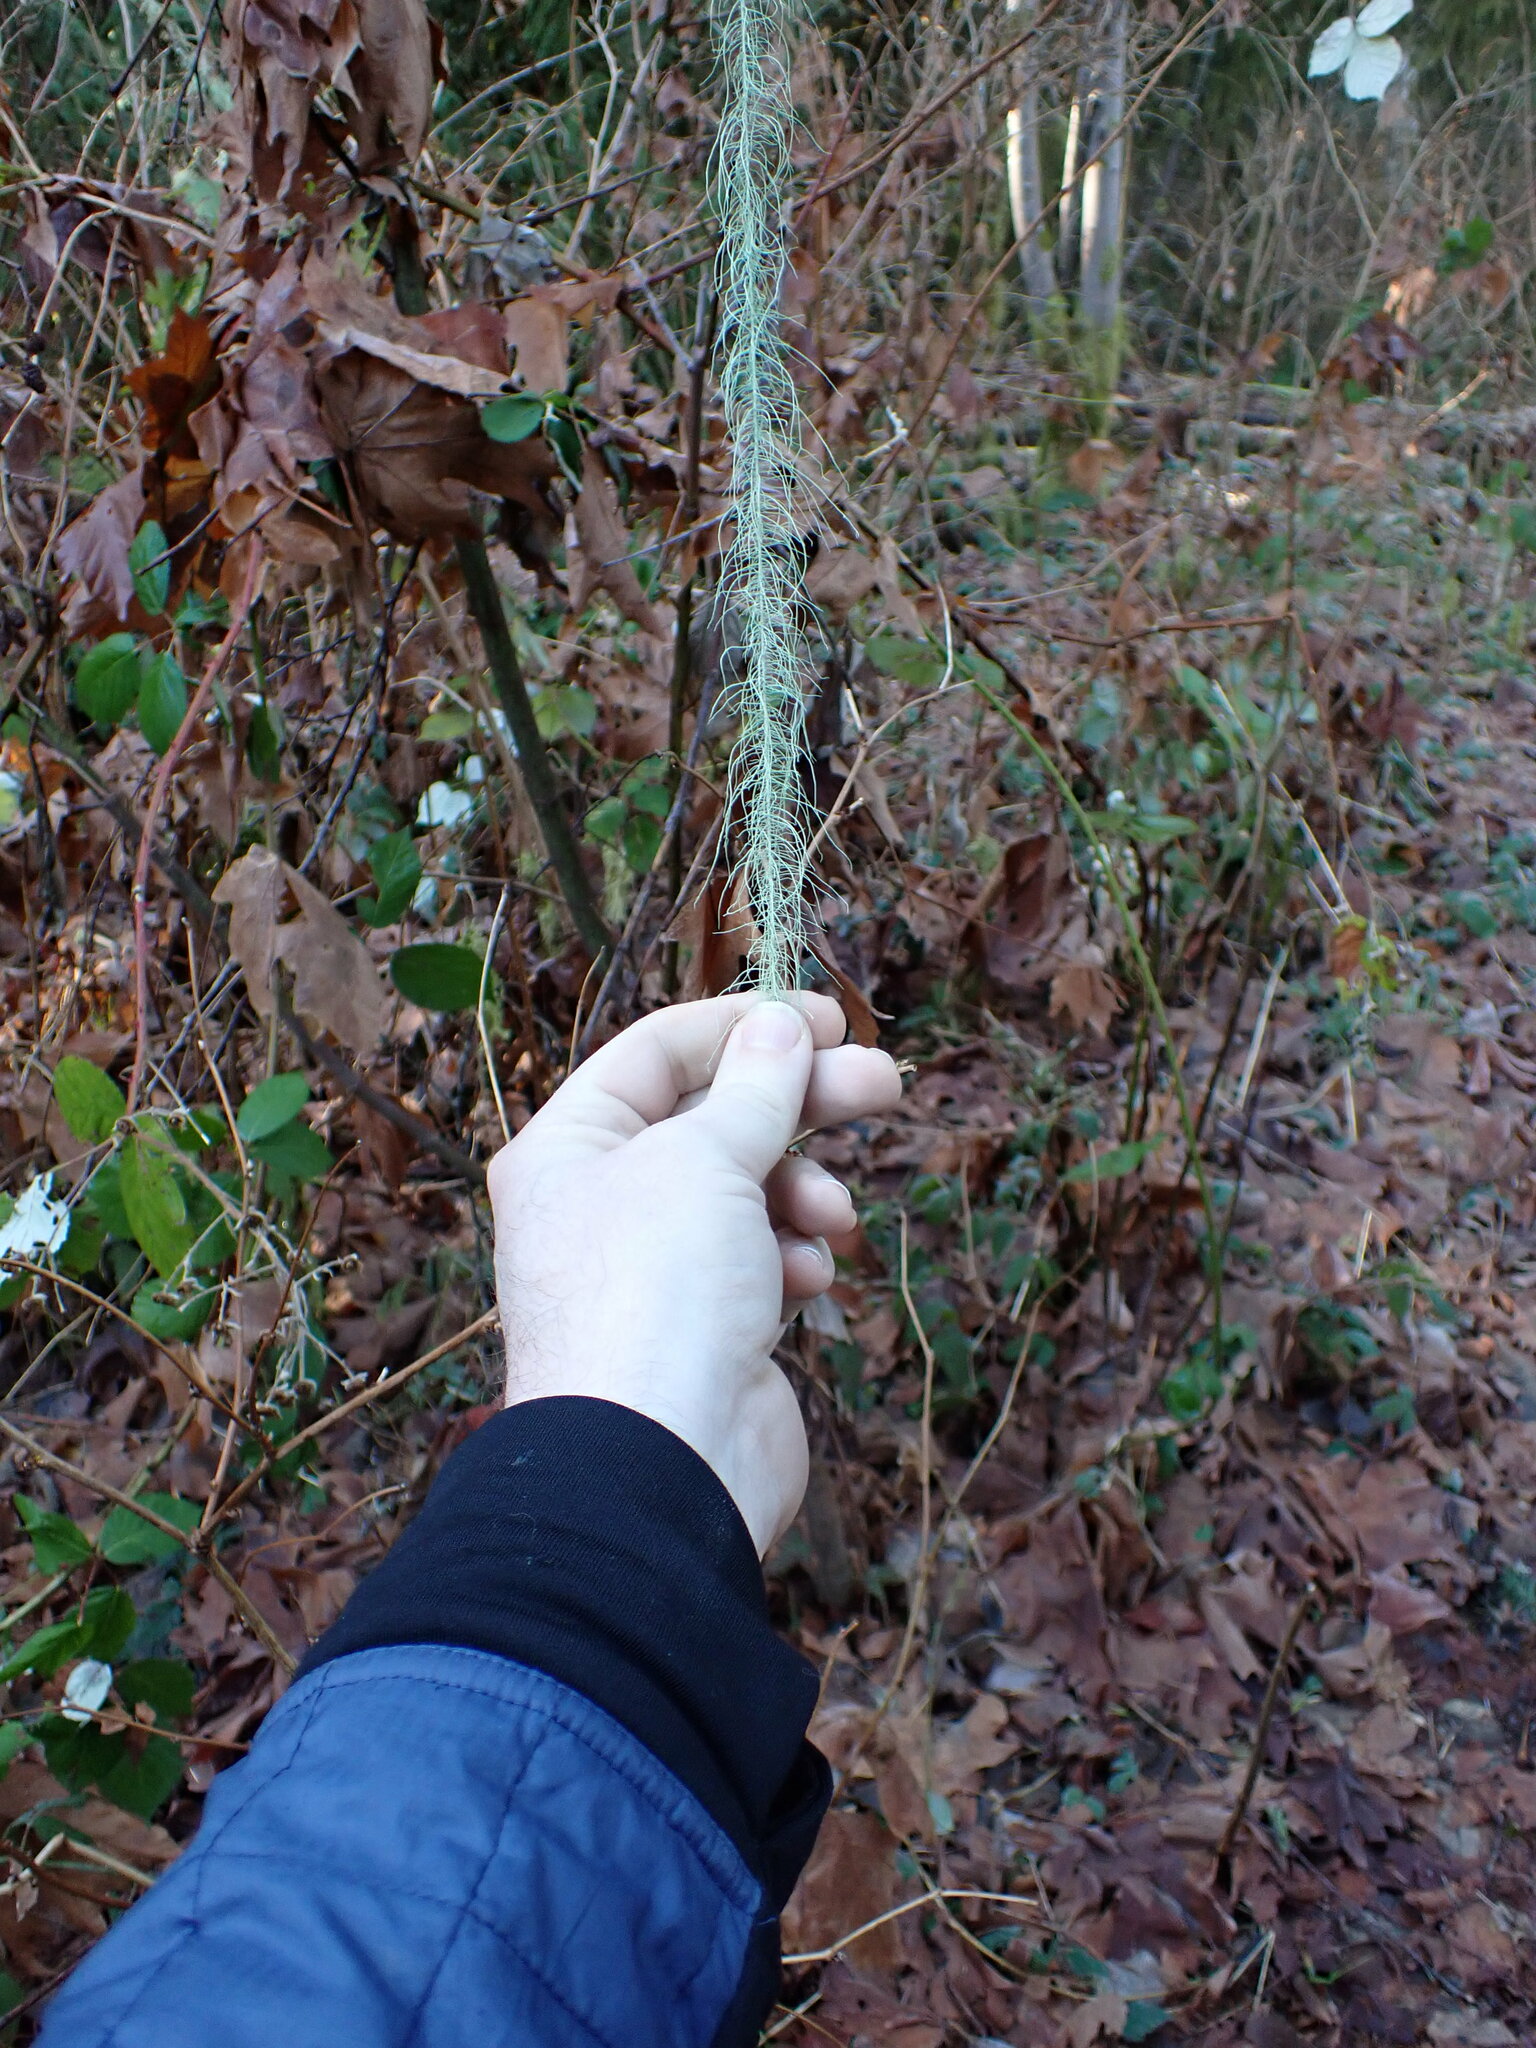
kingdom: Fungi
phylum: Ascomycota
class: Lecanoromycetes
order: Lecanorales
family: Parmeliaceae
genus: Dolichousnea
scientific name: Dolichousnea longissima
